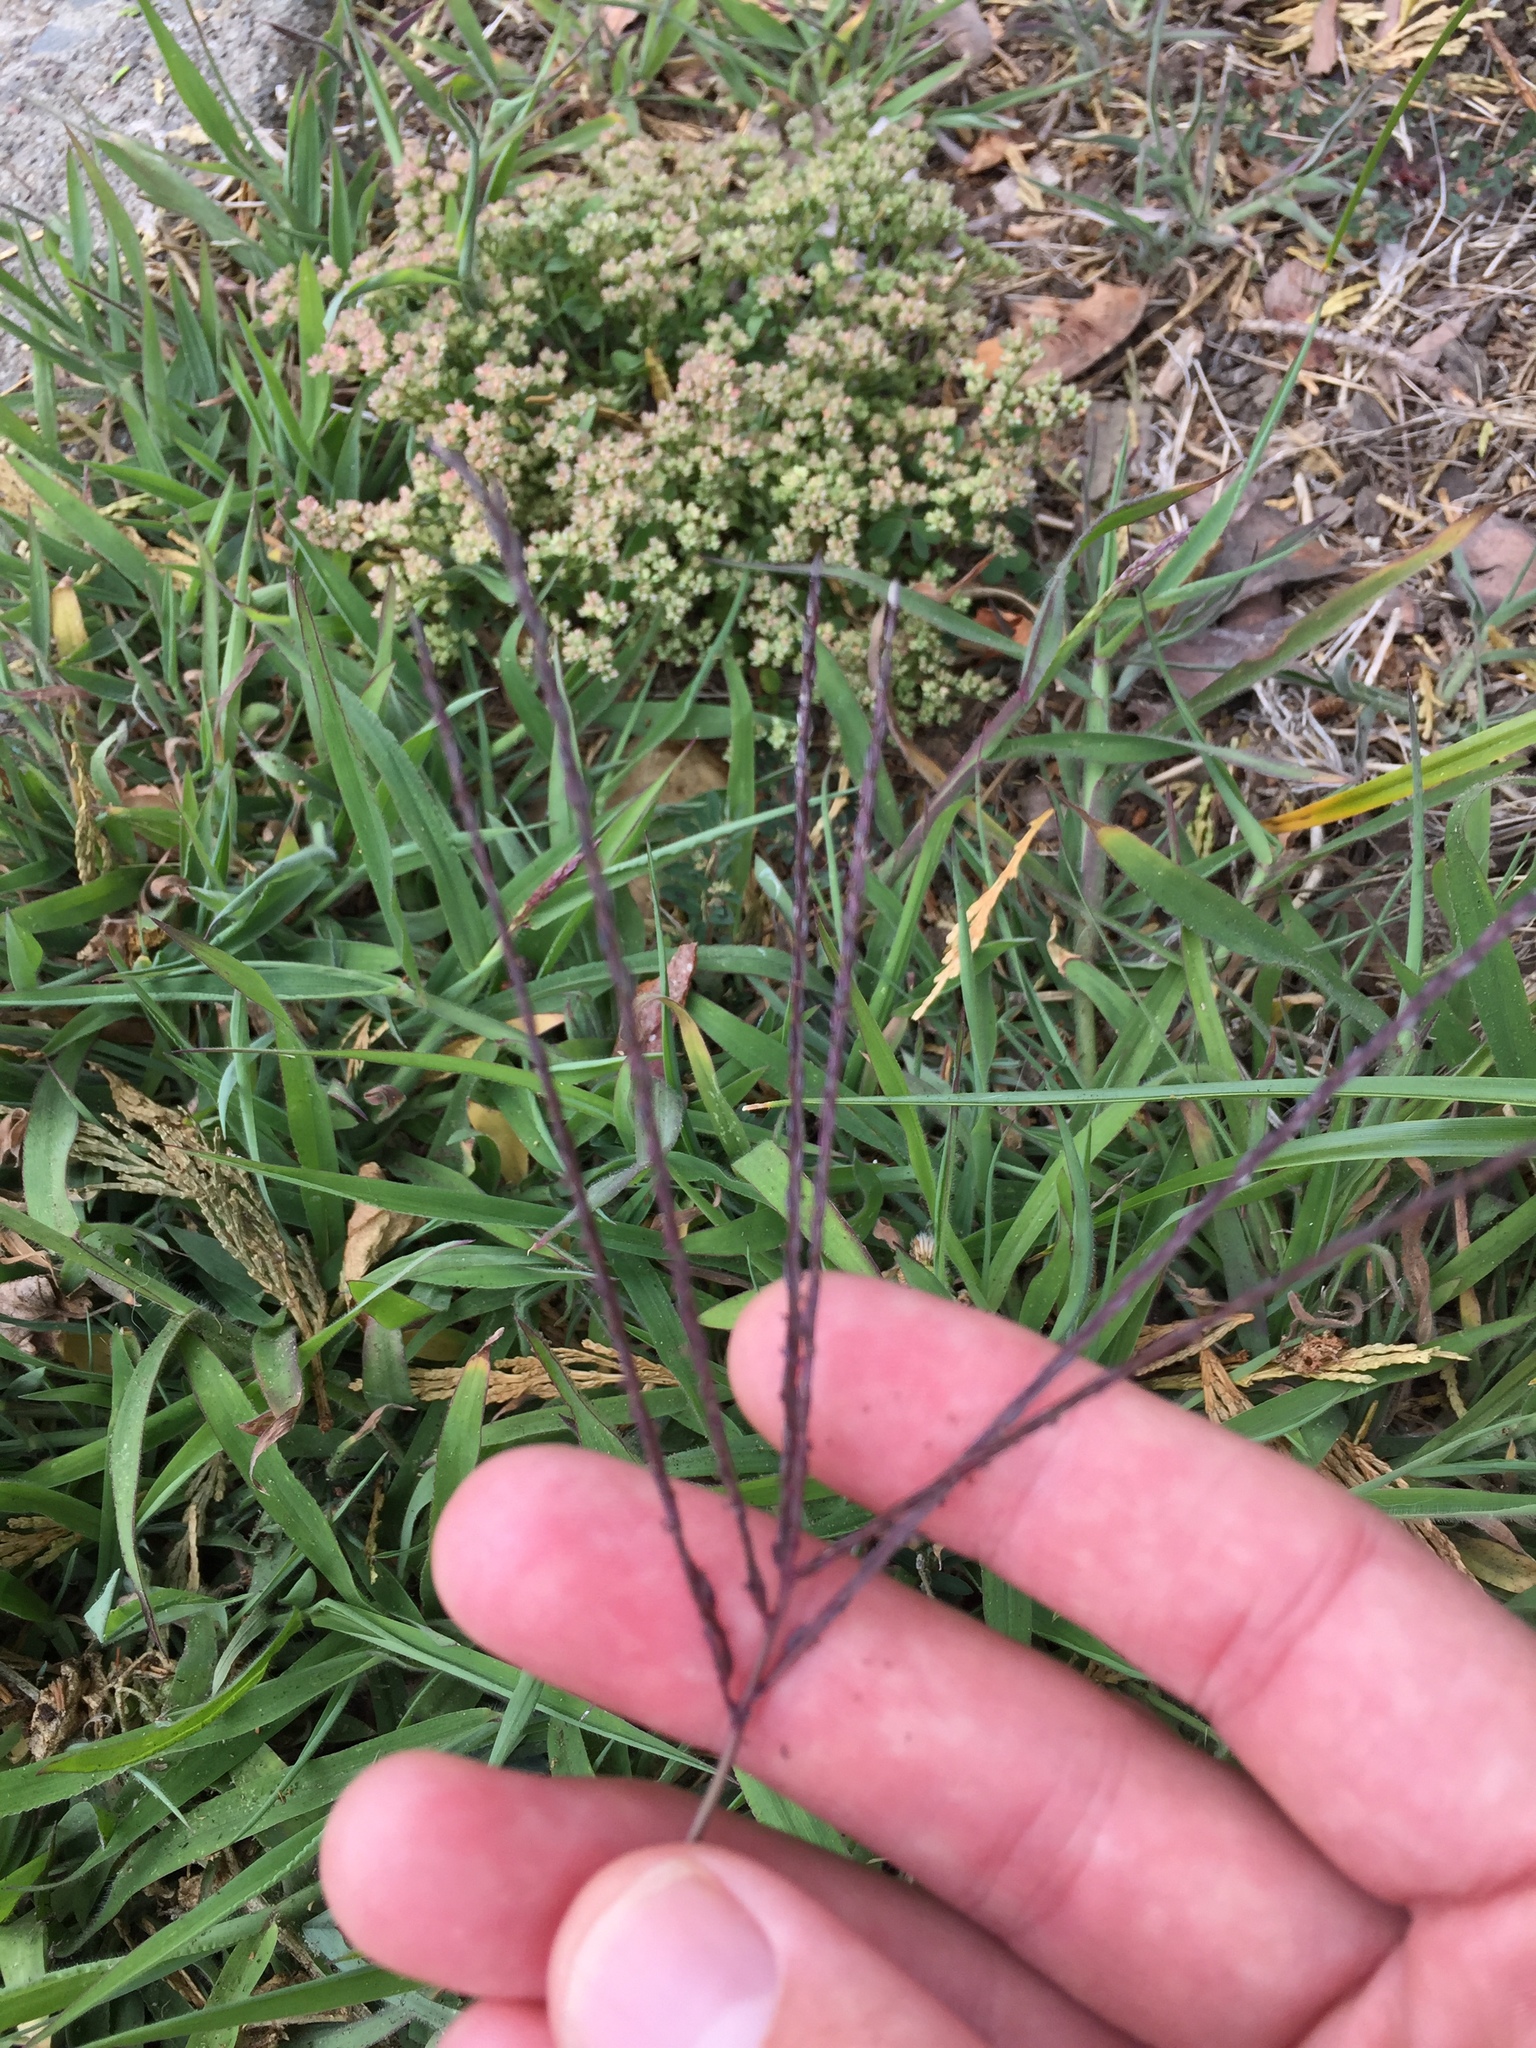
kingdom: Plantae
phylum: Tracheophyta
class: Liliopsida
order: Poales
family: Poaceae
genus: Digitaria
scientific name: Digitaria sanguinalis
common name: Hairy crabgrass
